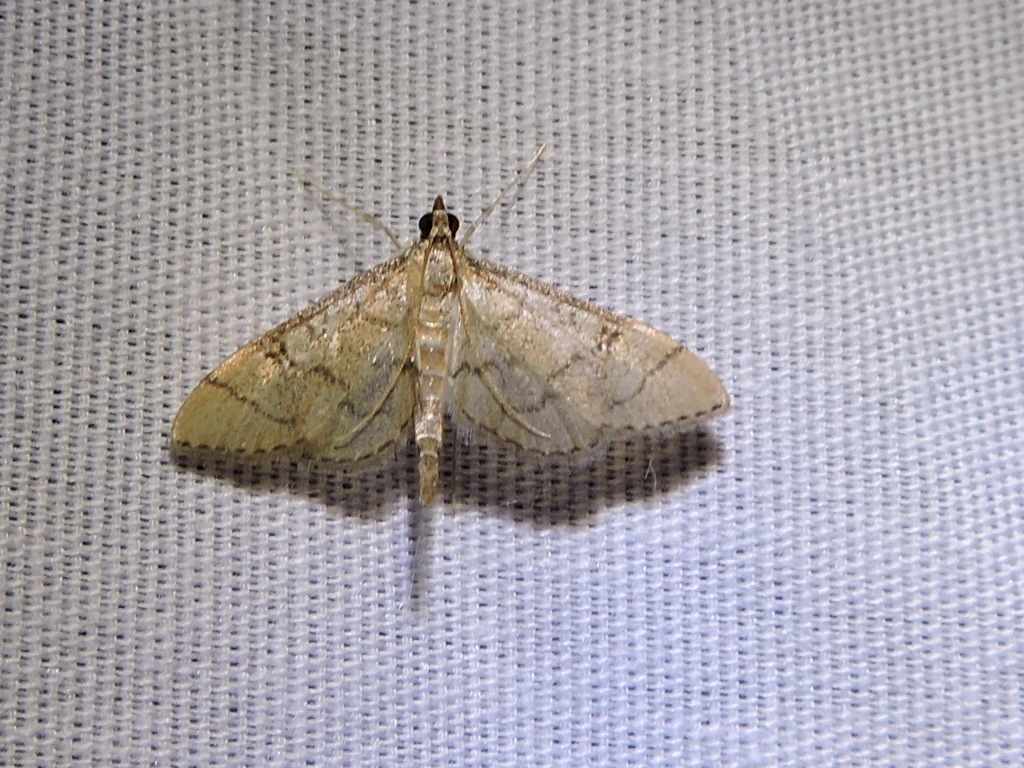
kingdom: Animalia
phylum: Arthropoda
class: Insecta
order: Lepidoptera
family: Crambidae
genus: Lamprosema
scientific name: Lamprosema Blepharomastix ranalis
